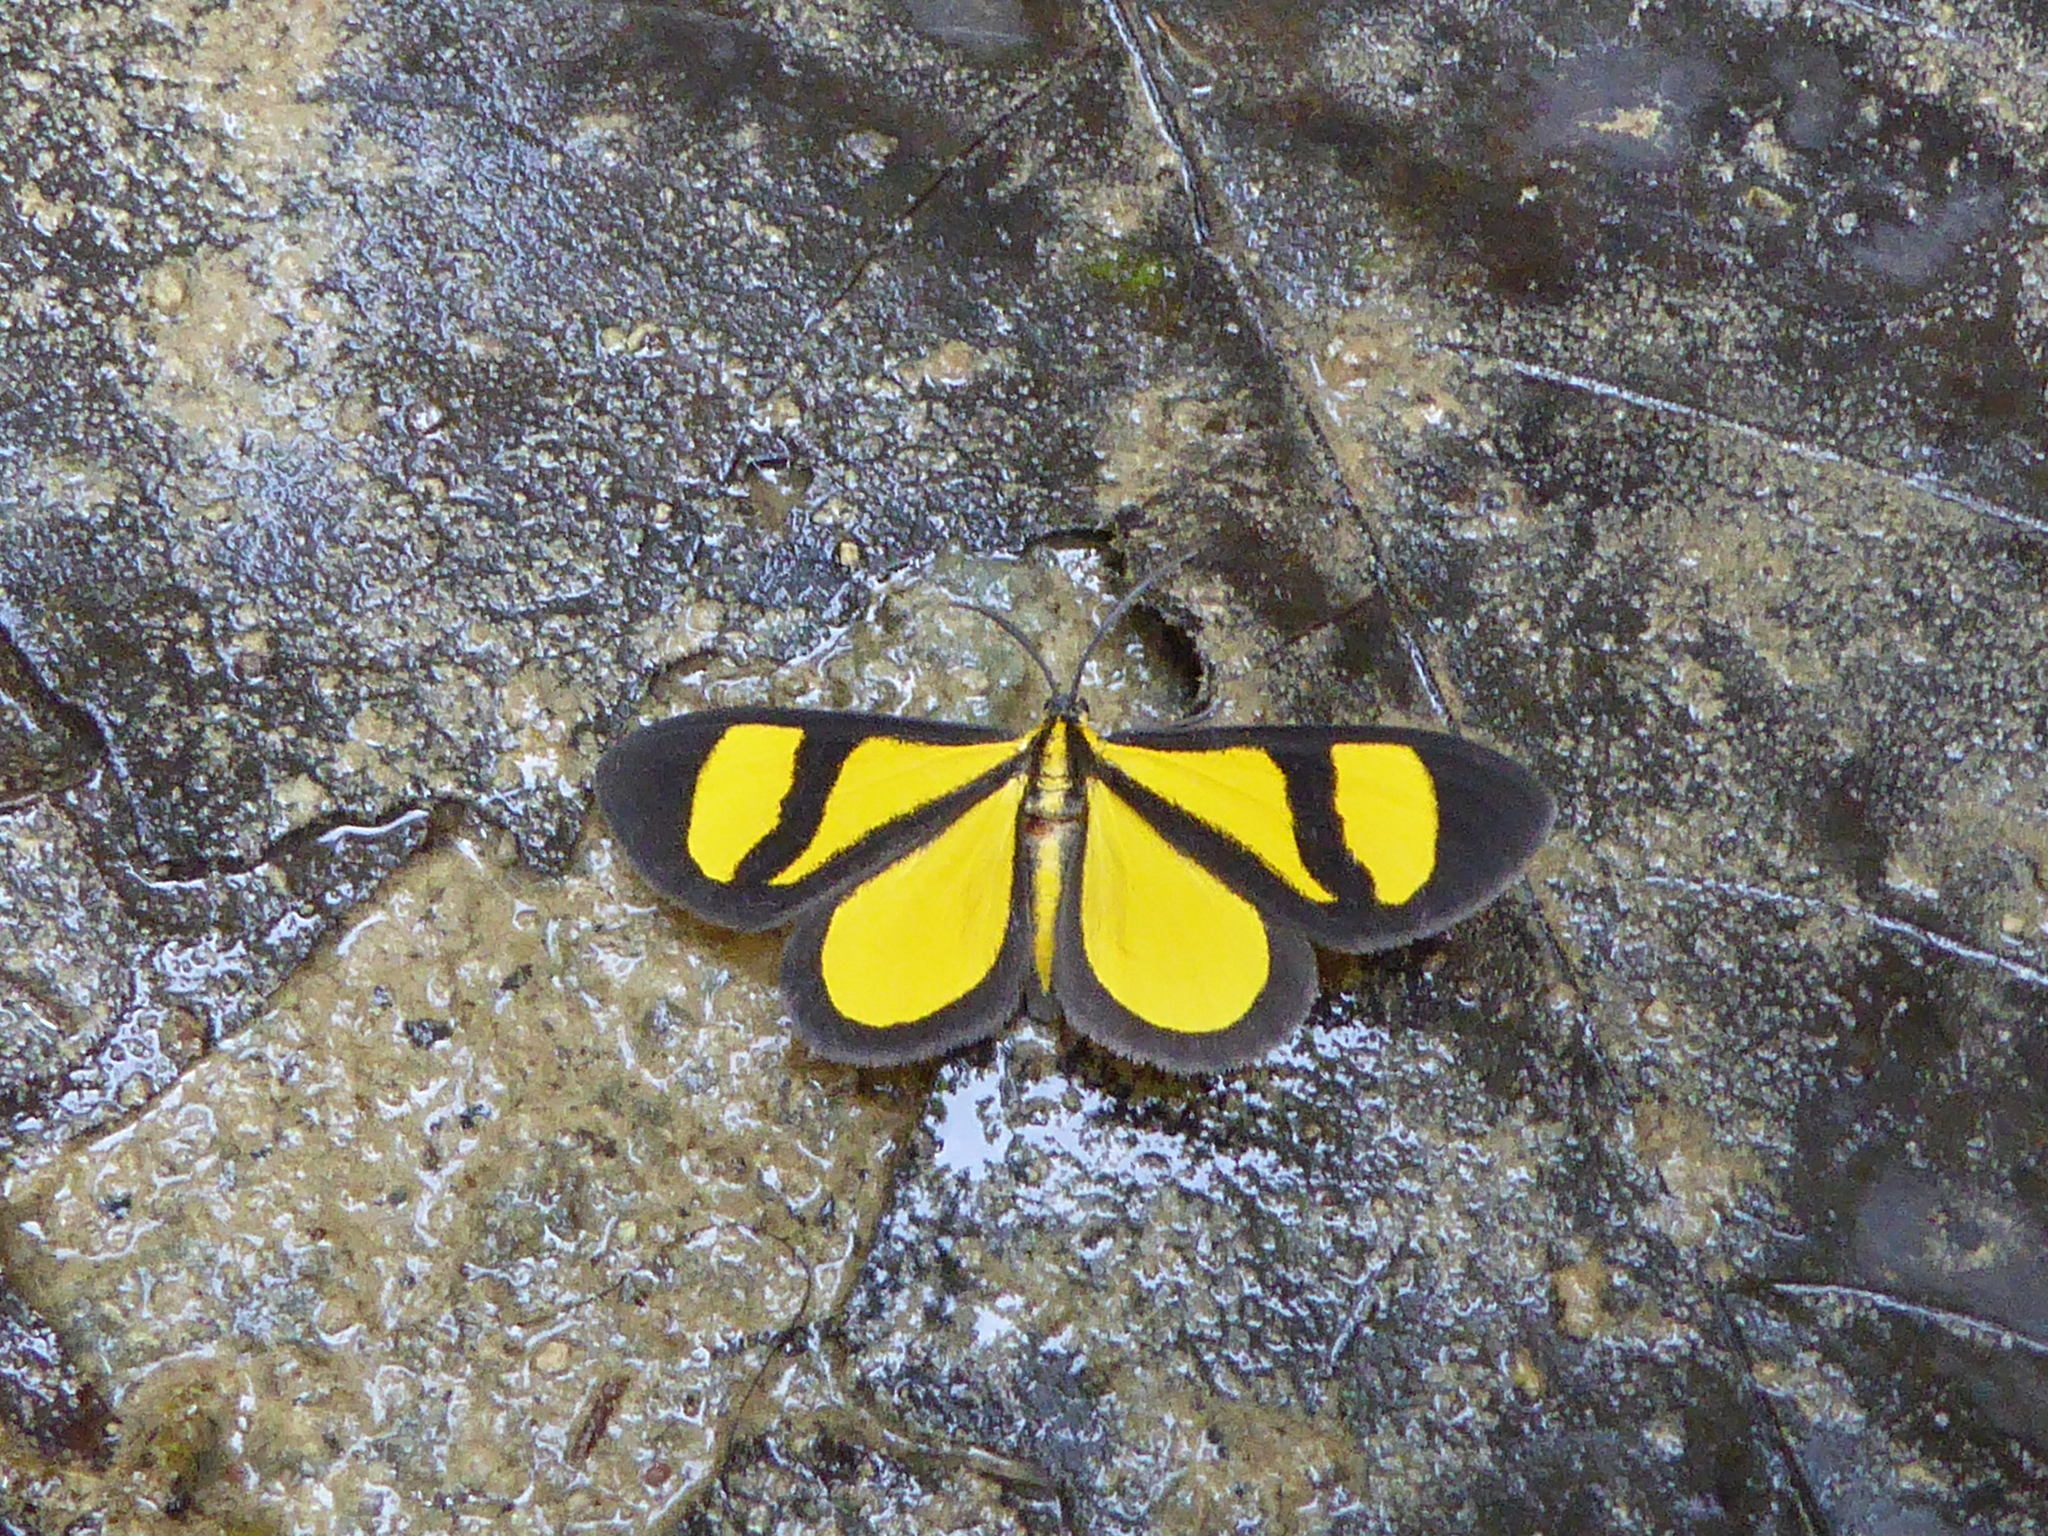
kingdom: Animalia
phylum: Arthropoda
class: Insecta
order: Lepidoptera
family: Geometridae
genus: Smicropus
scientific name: Smicropus laeta
